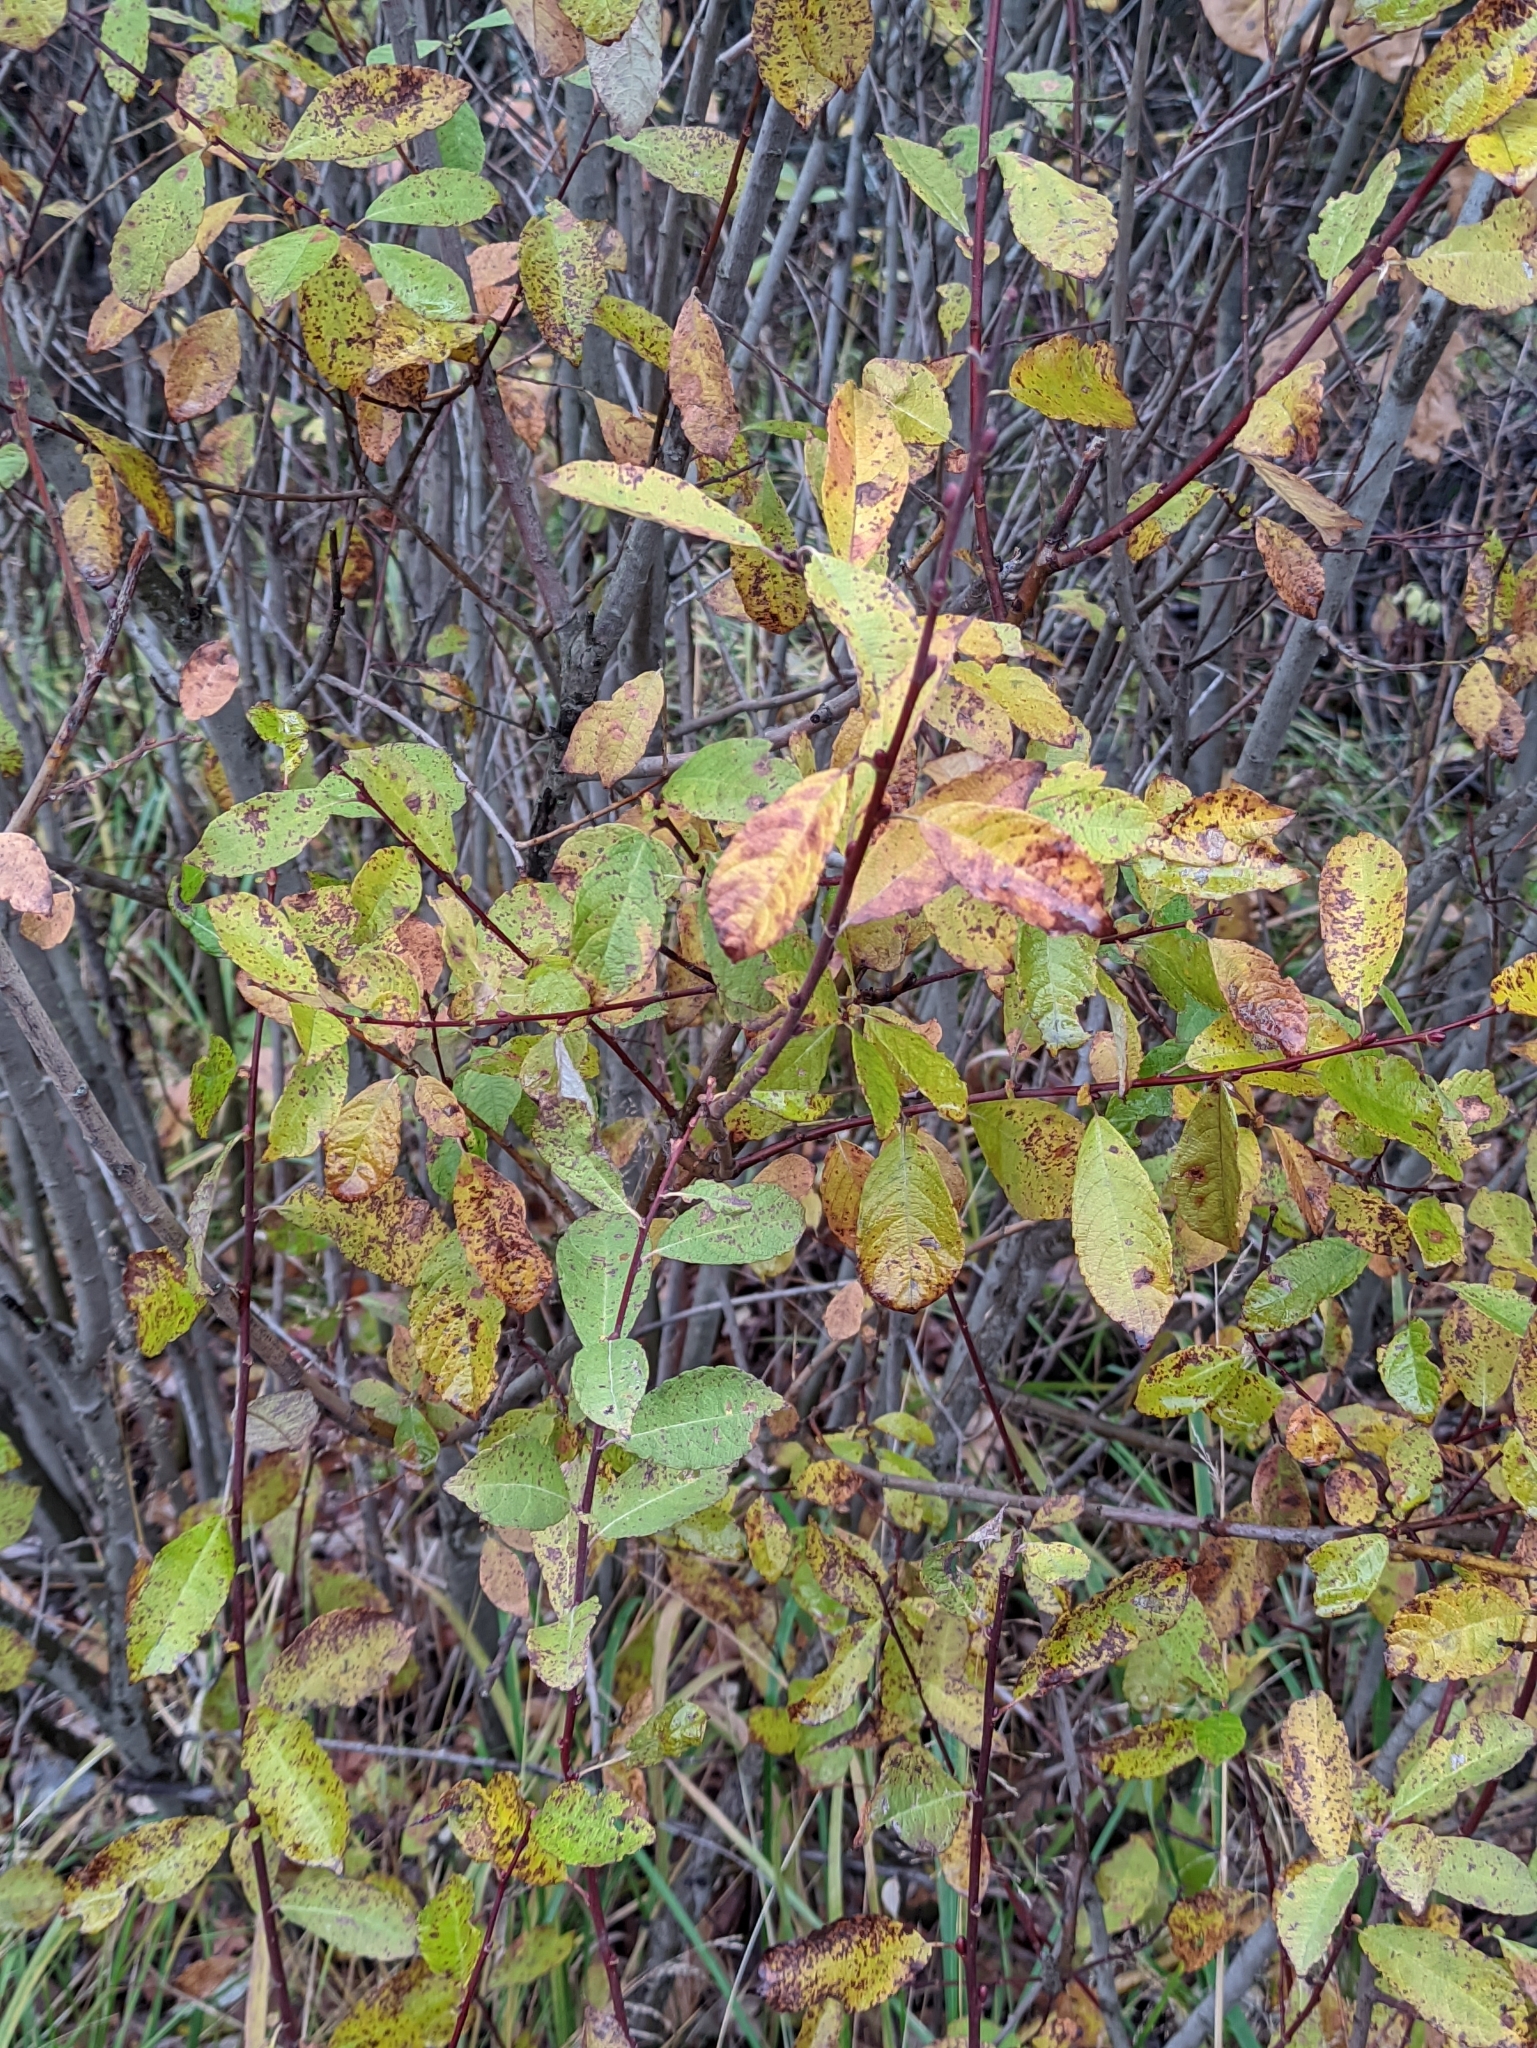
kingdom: Plantae
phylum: Tracheophyta
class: Magnoliopsida
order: Malpighiales
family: Salicaceae
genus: Salix
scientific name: Salix aurita
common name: Eared willow
